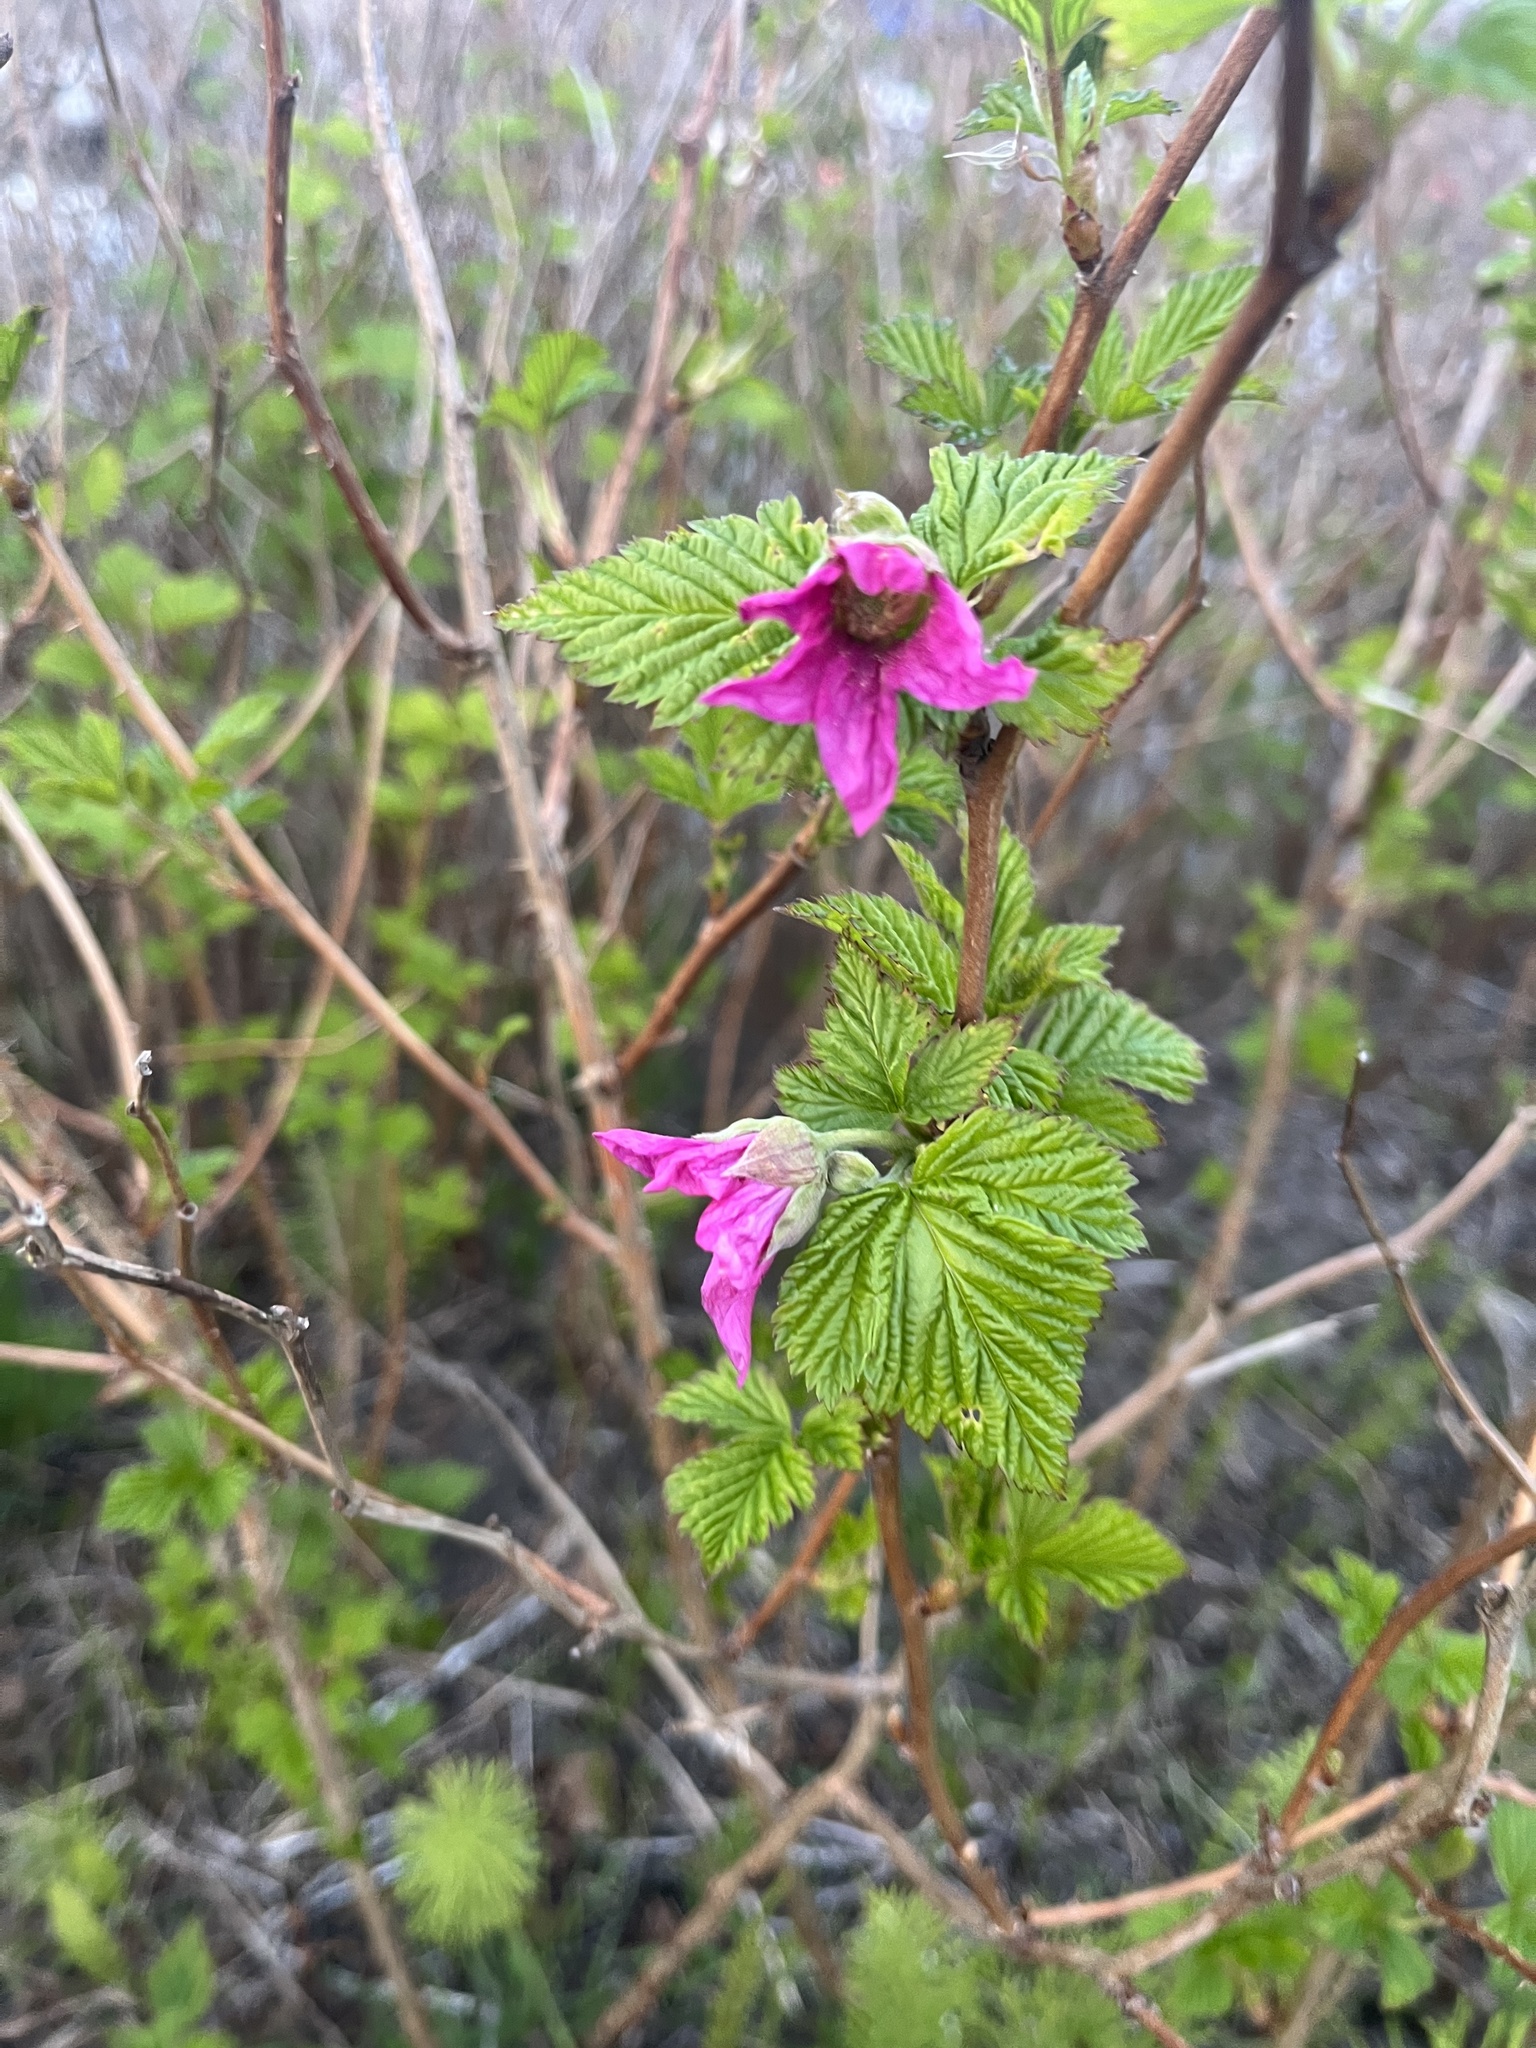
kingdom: Plantae
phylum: Tracheophyta
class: Magnoliopsida
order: Rosales
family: Rosaceae
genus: Rubus
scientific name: Rubus spectabilis
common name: Salmonberry
